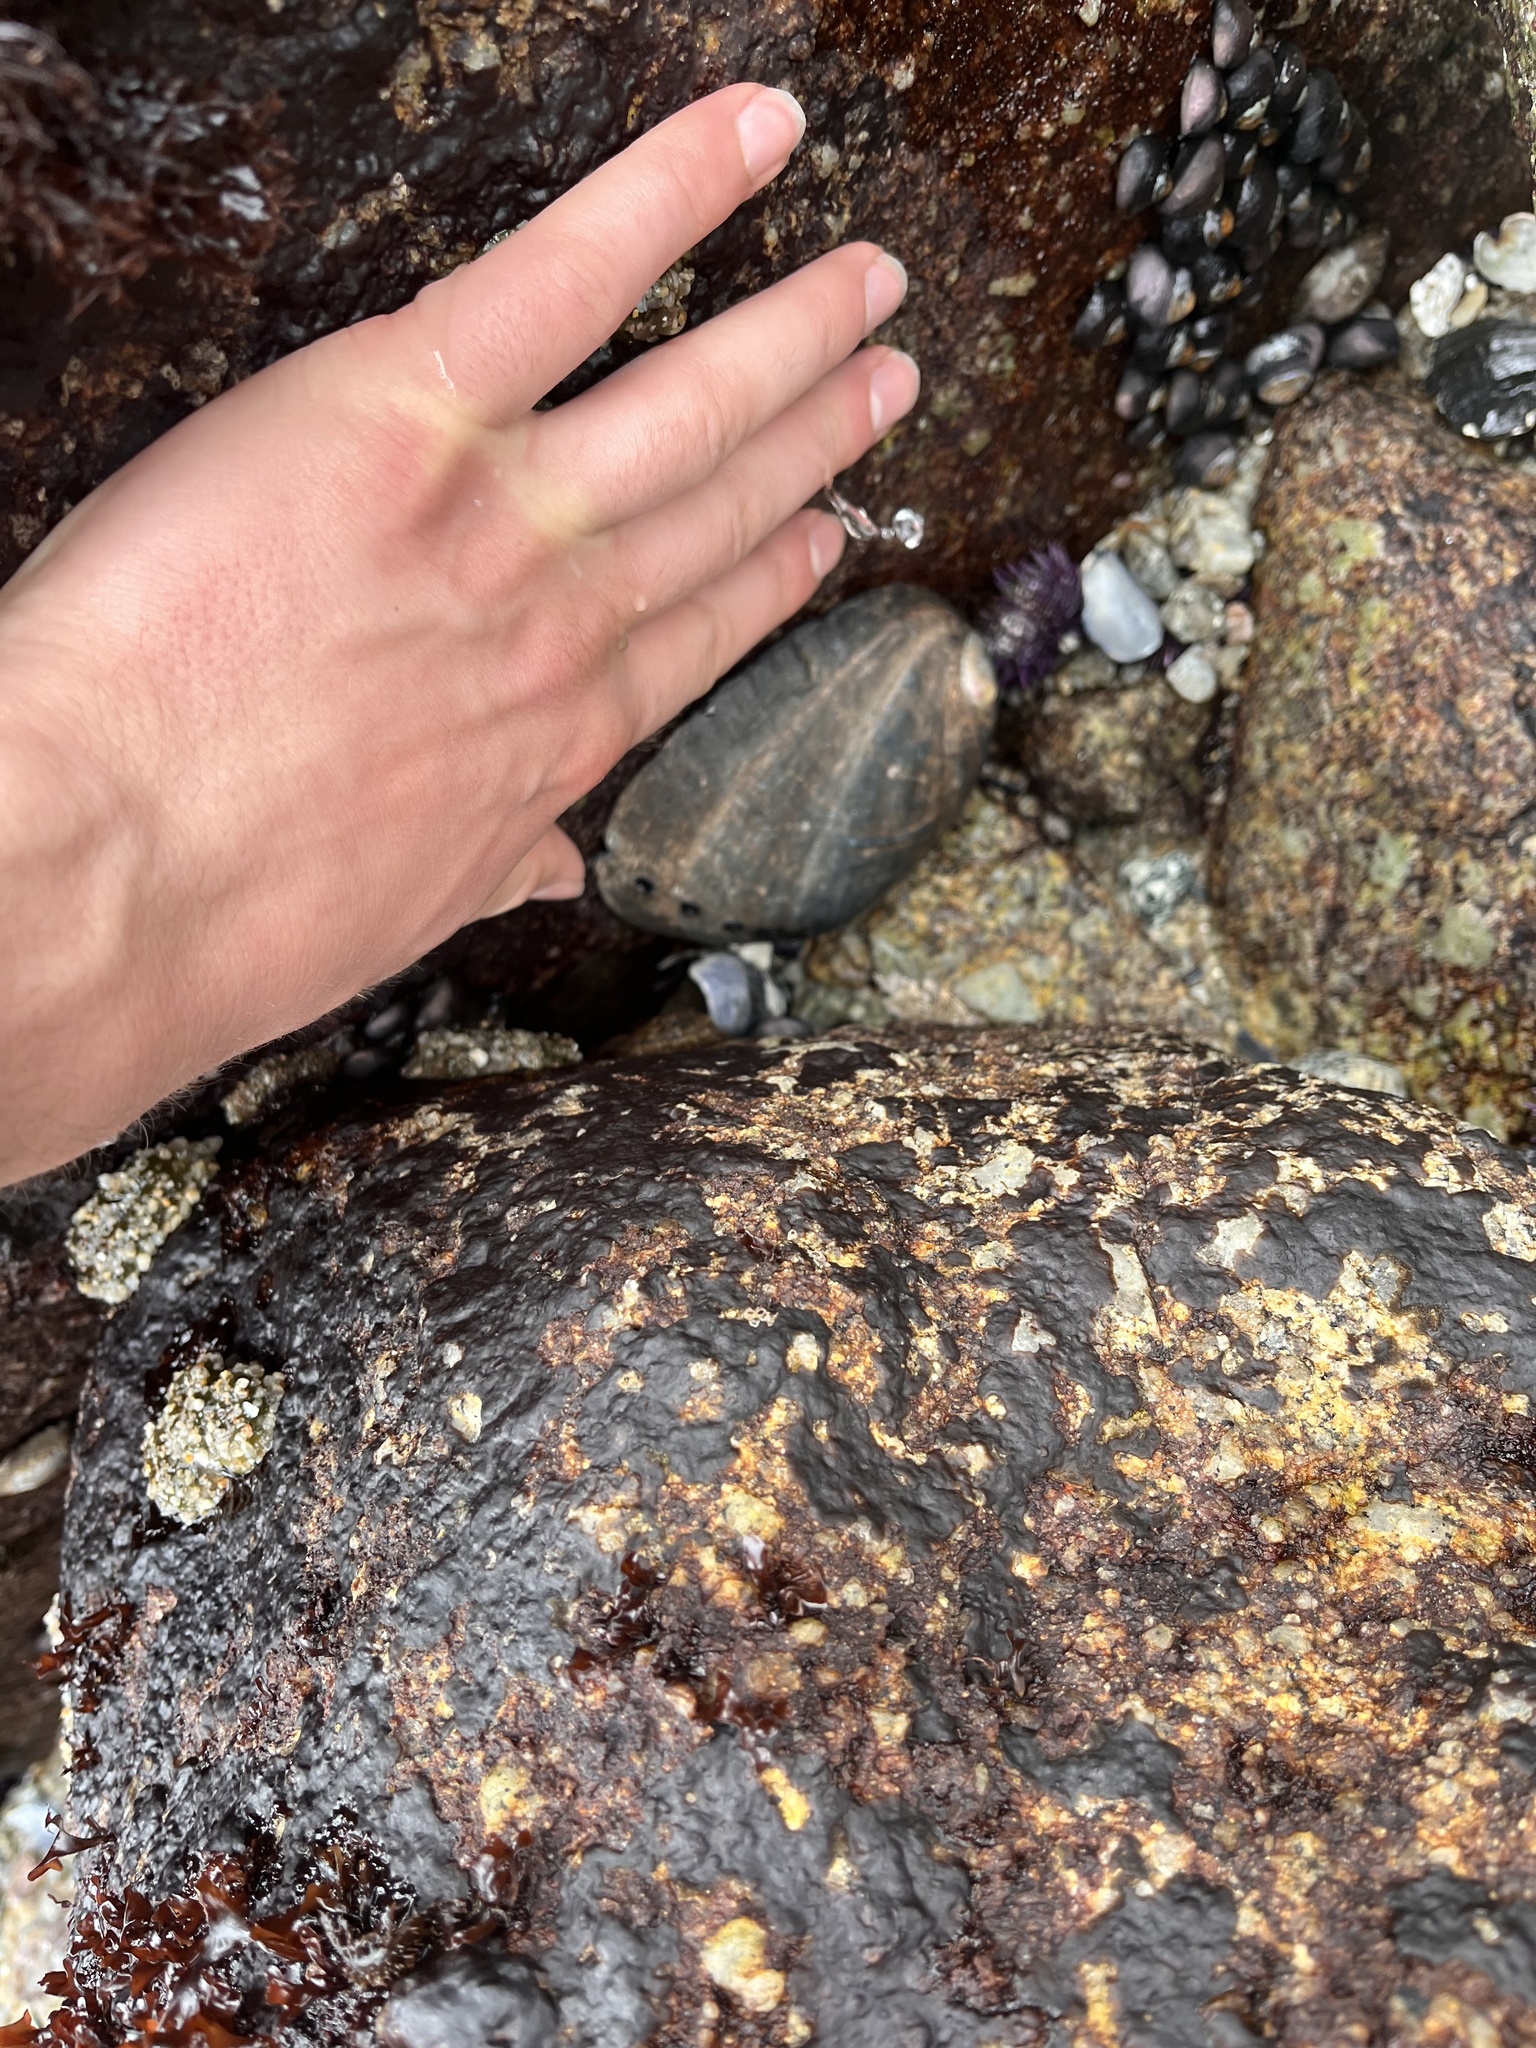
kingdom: Animalia
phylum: Mollusca
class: Gastropoda
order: Lepetellida
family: Haliotidae
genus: Haliotis
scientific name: Haliotis cracherodii
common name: Black abalone
